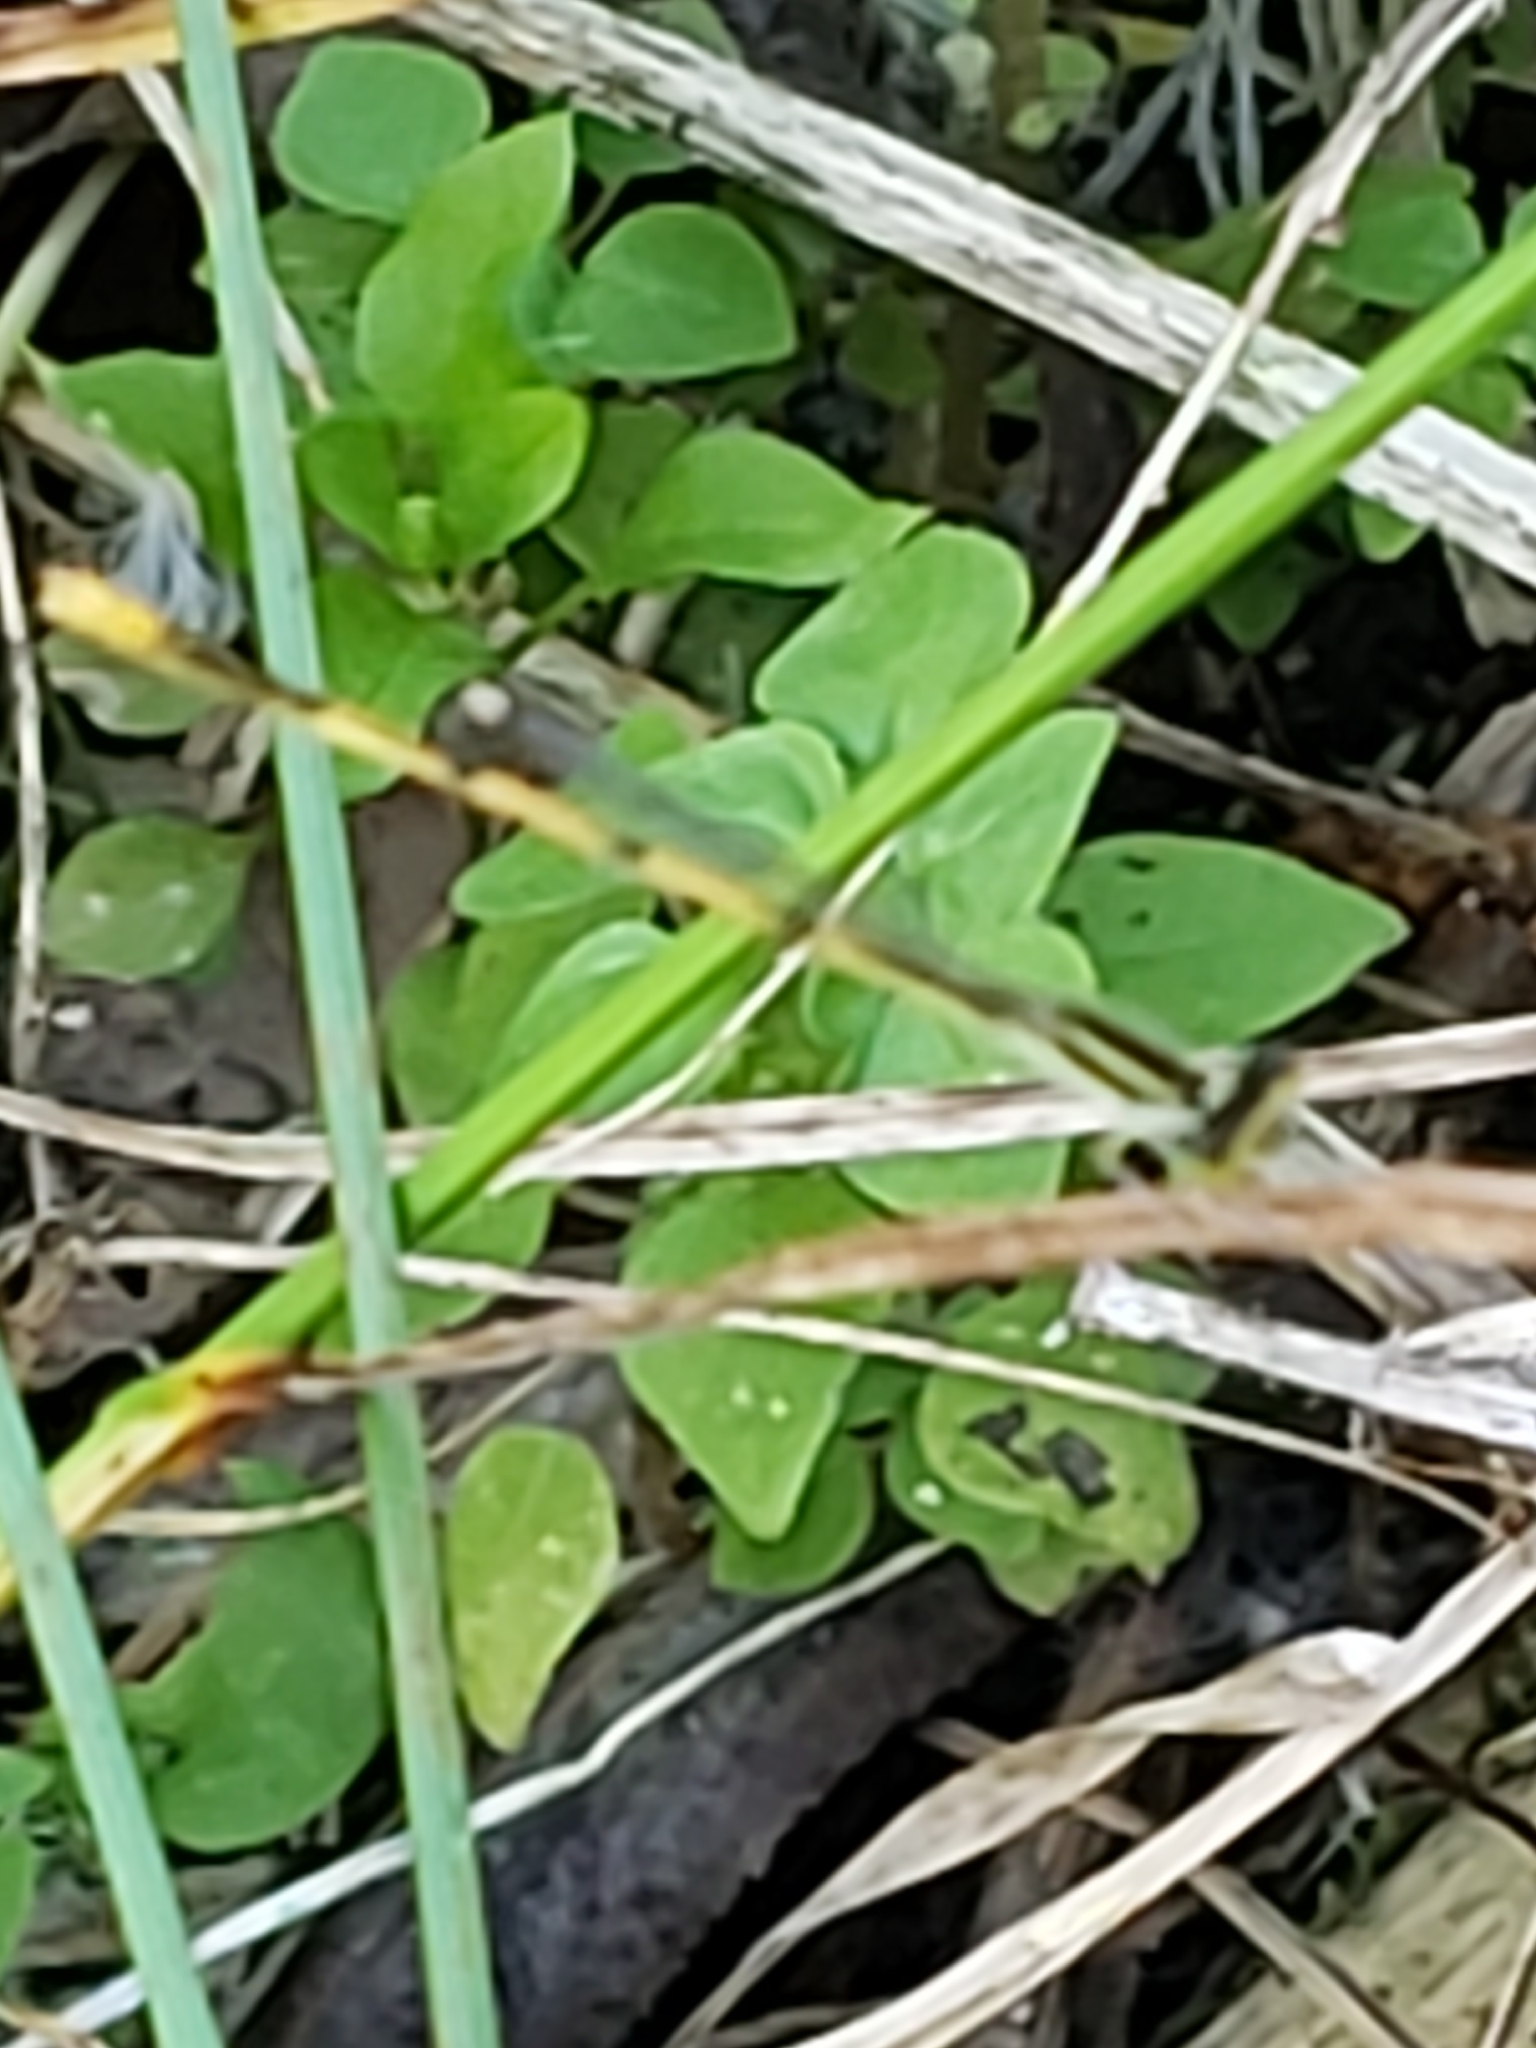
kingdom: Animalia
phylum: Arthropoda
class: Insecta
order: Odonata
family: Coenagrionidae
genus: Ischnura
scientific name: Ischnura hastata
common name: Citrine forktail
